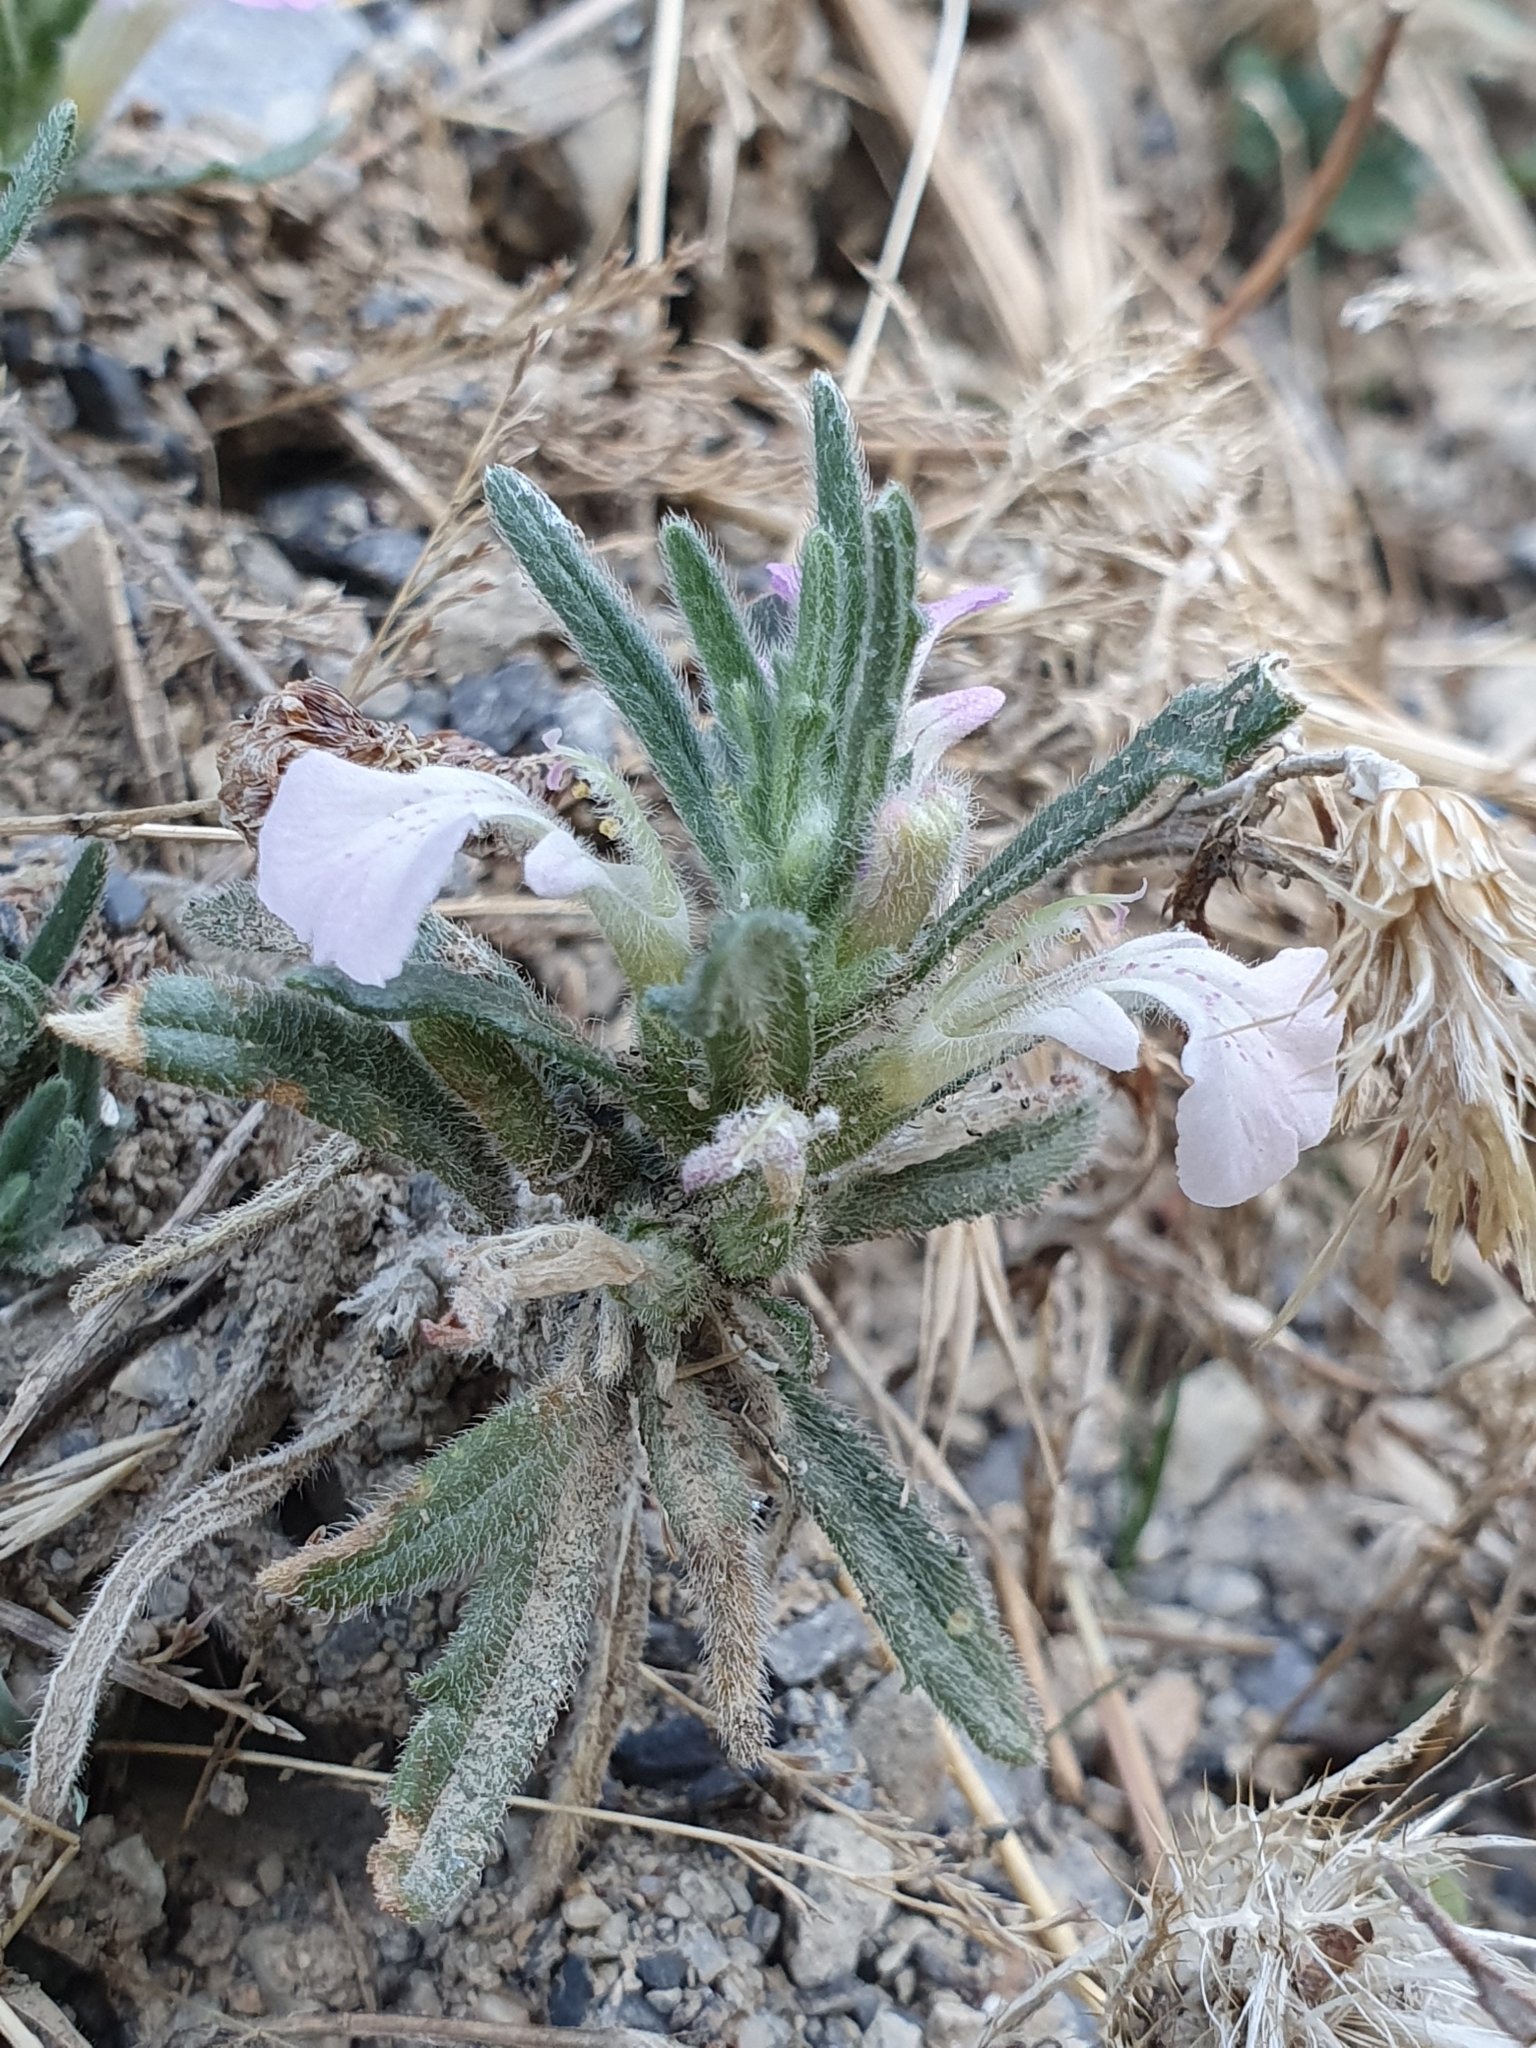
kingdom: Plantae
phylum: Tracheophyta
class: Magnoliopsida
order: Lamiales
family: Lamiaceae
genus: Ajuga
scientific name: Ajuga iva
